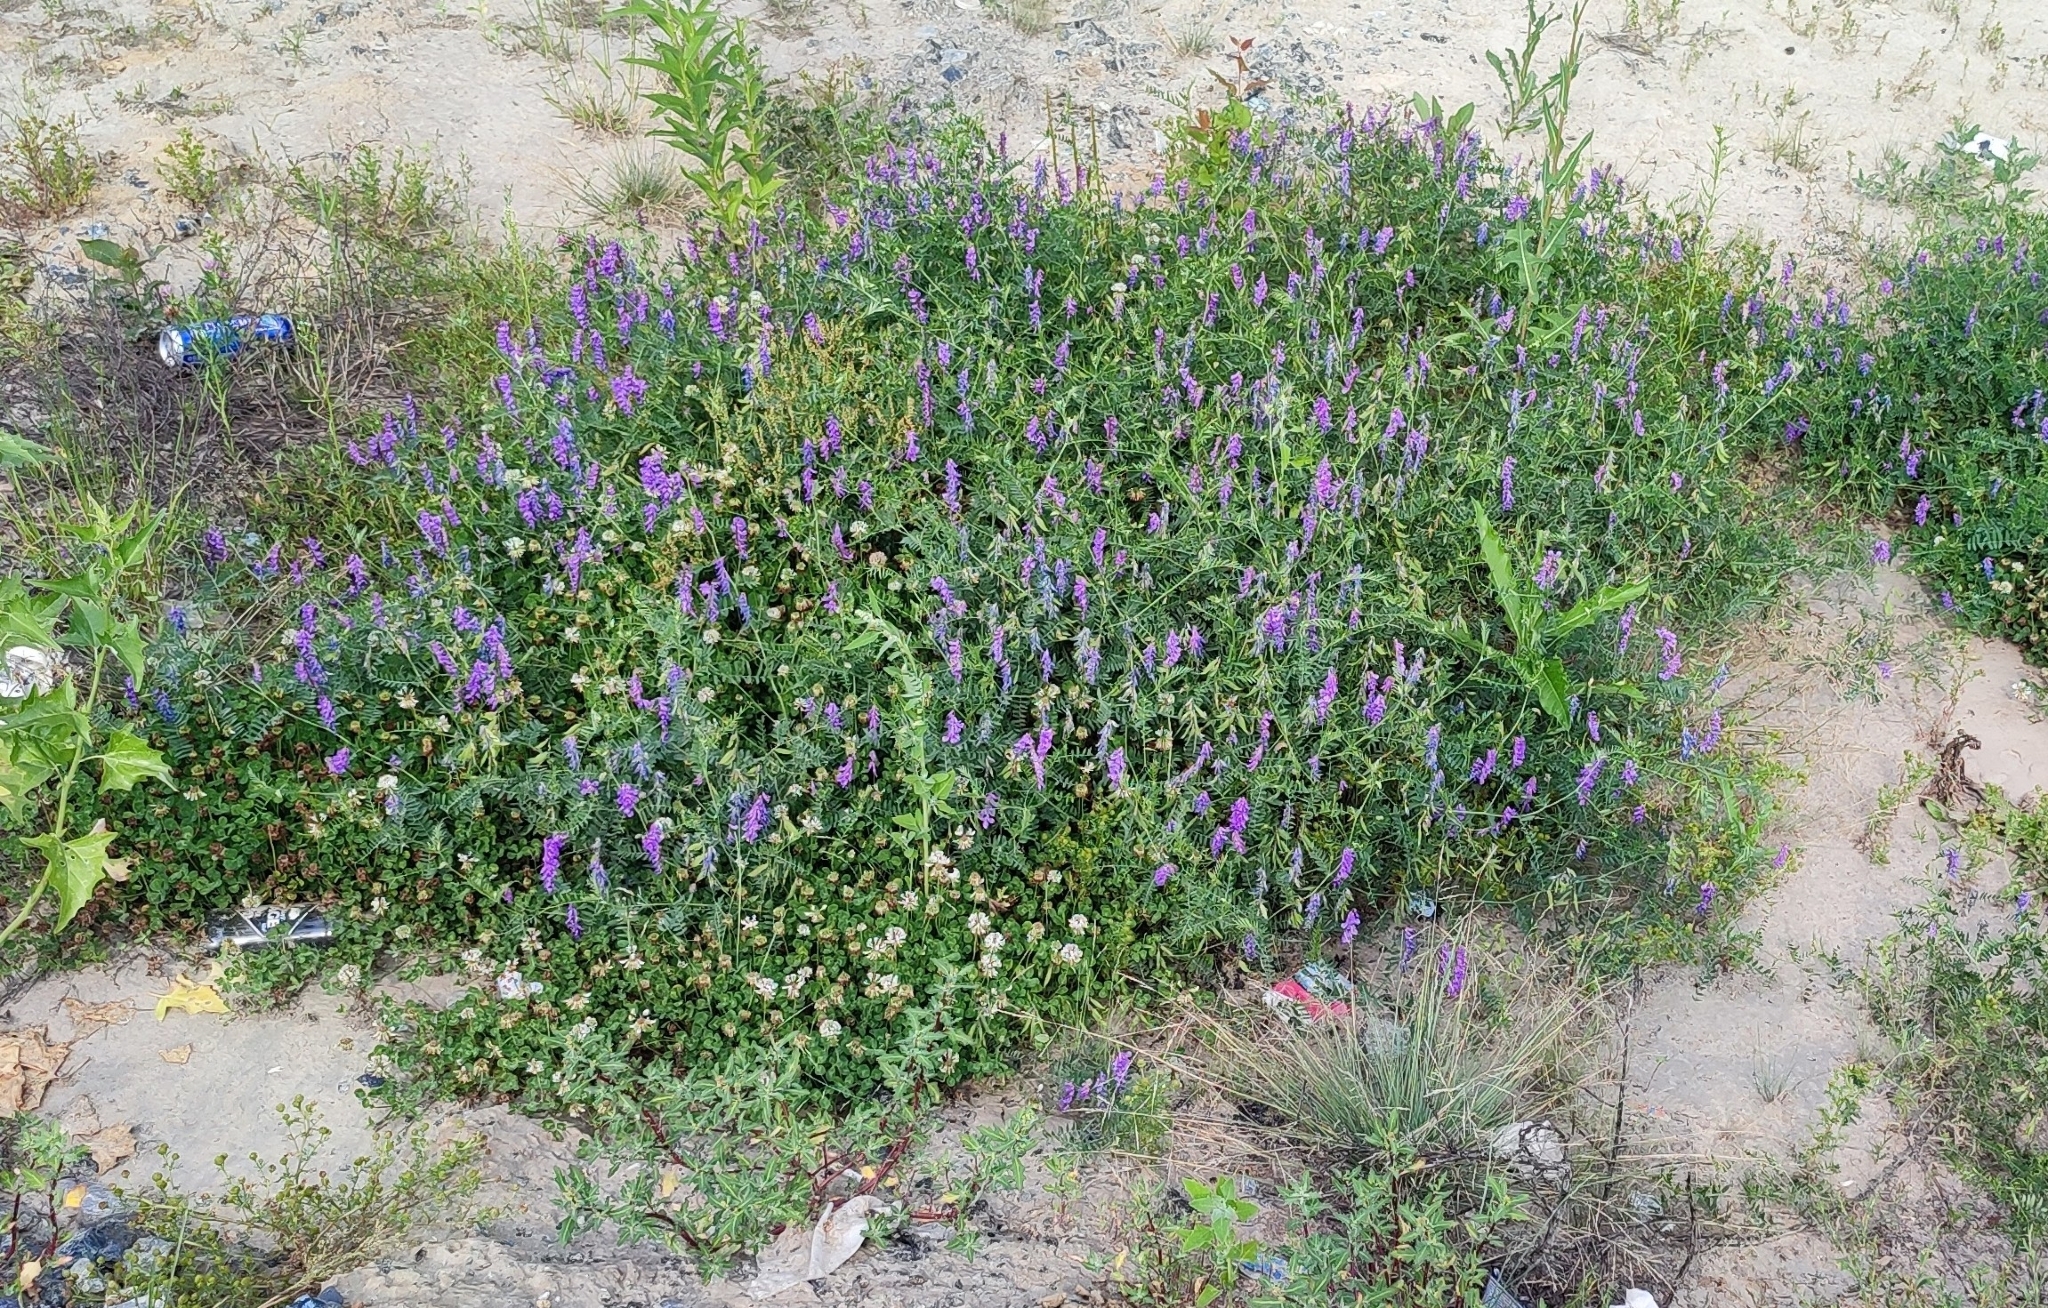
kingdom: Plantae
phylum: Tracheophyta
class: Magnoliopsida
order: Fabales
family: Fabaceae
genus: Vicia
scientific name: Vicia cracca
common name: Bird vetch
